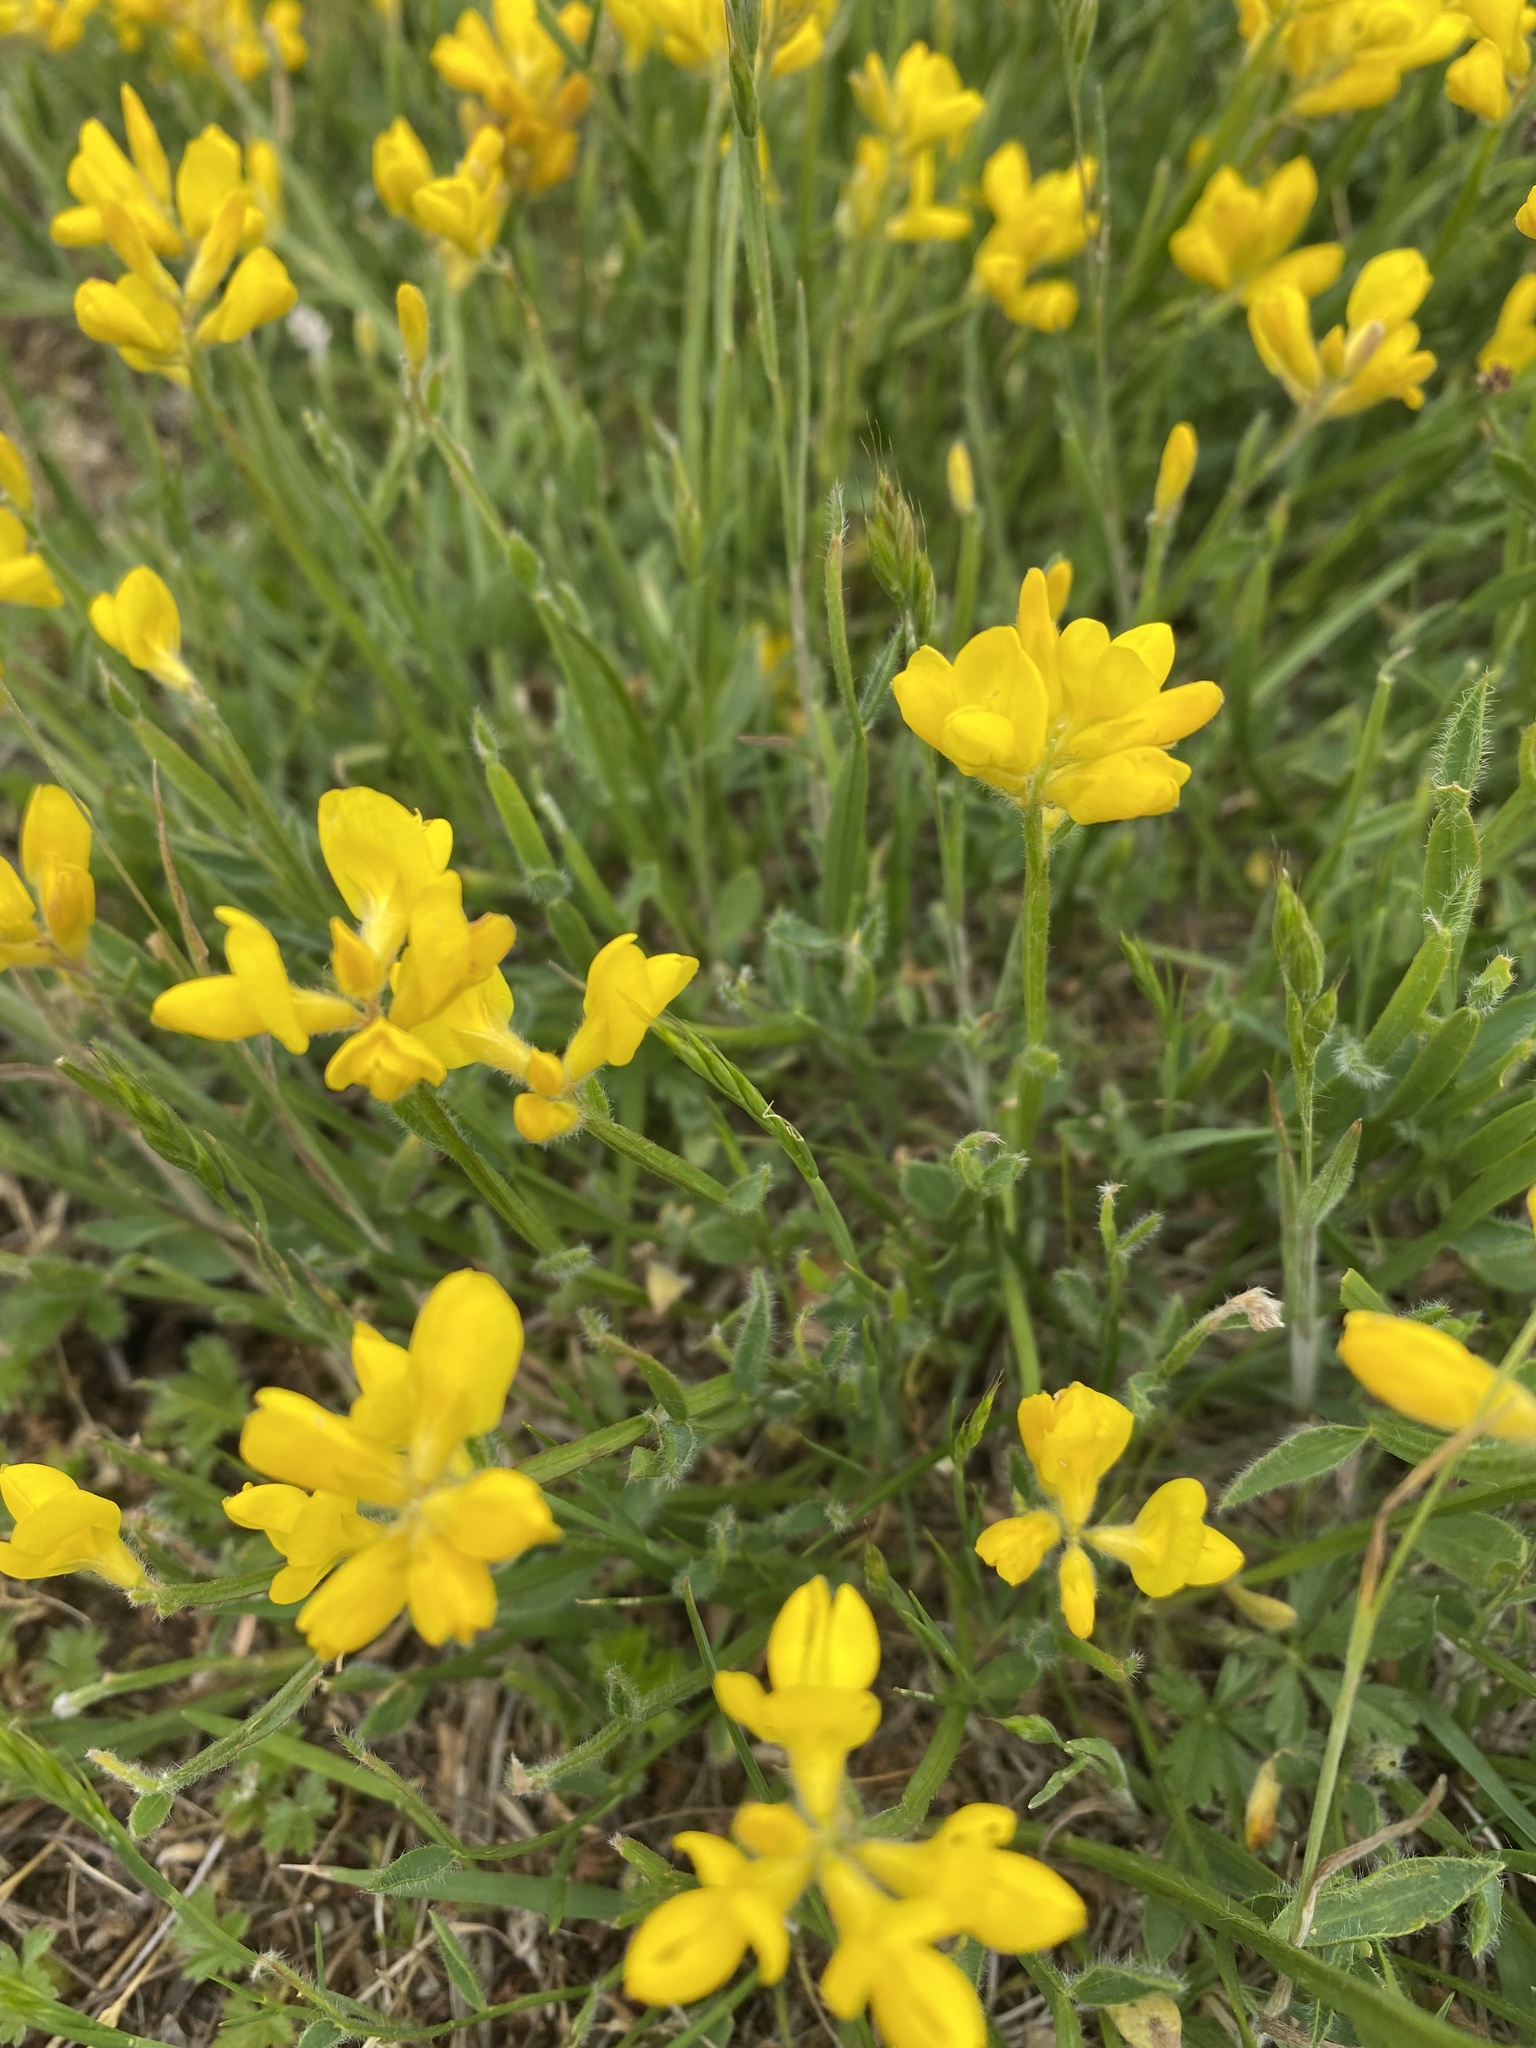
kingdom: Plantae
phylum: Tracheophyta
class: Magnoliopsida
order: Fabales
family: Fabaceae
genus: Genista
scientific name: Genista sagittalis
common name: Winged greenweed
